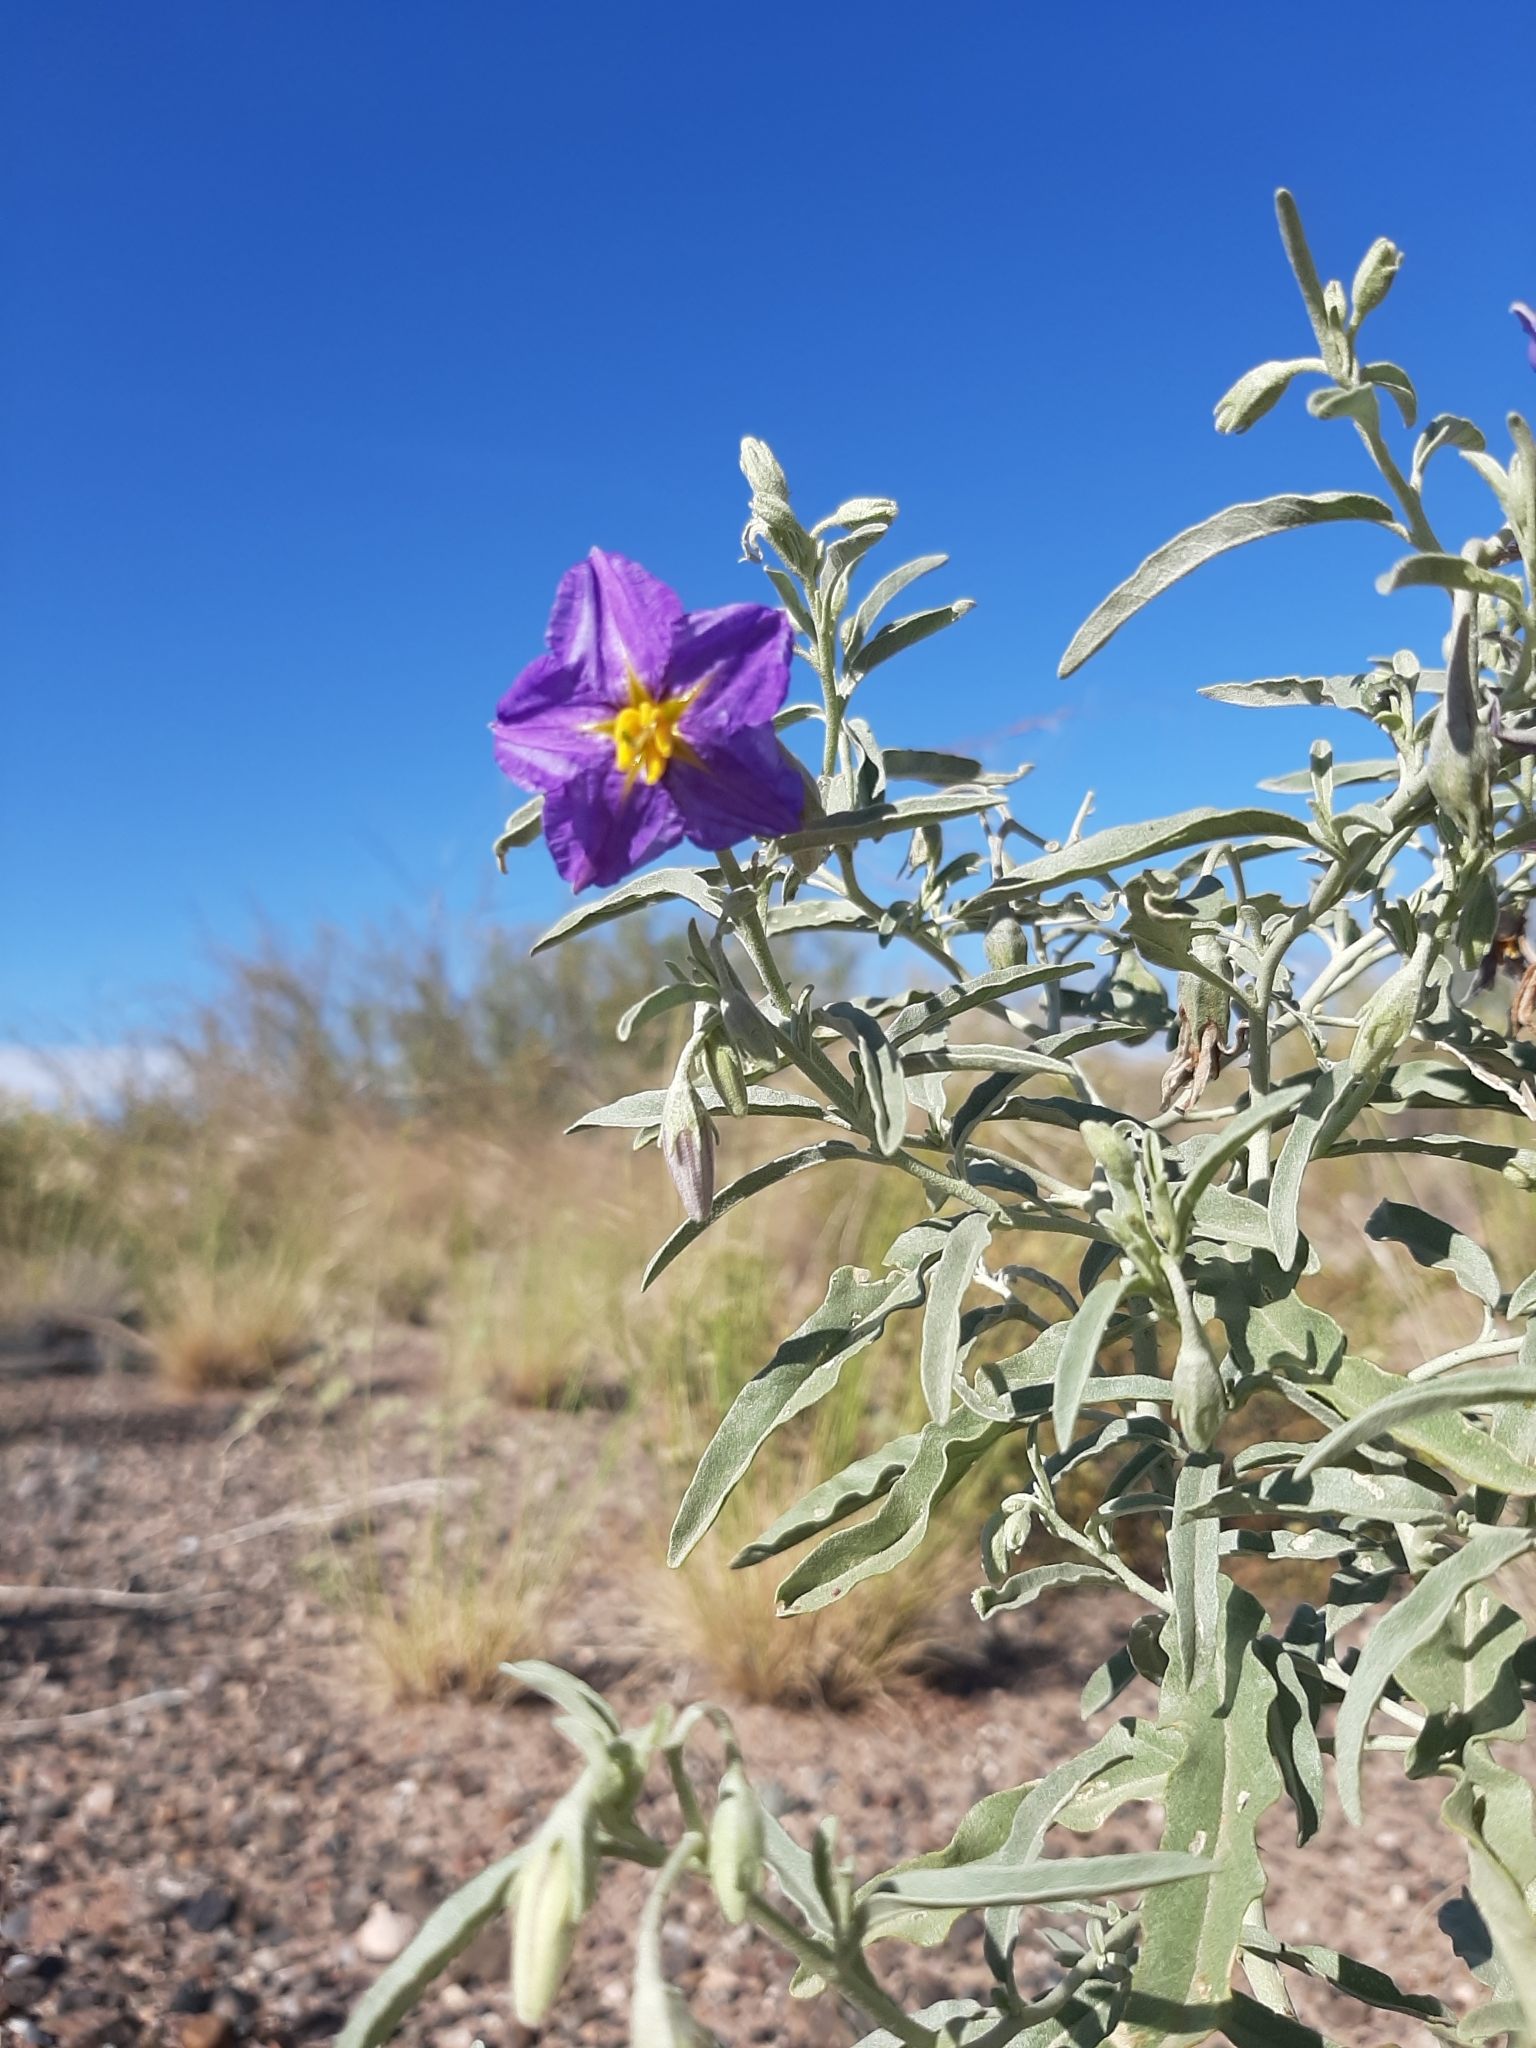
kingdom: Plantae
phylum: Tracheophyta
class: Magnoliopsida
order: Solanales
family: Solanaceae
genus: Solanum
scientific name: Solanum elaeagnifolium
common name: Silverleaf nightshade
